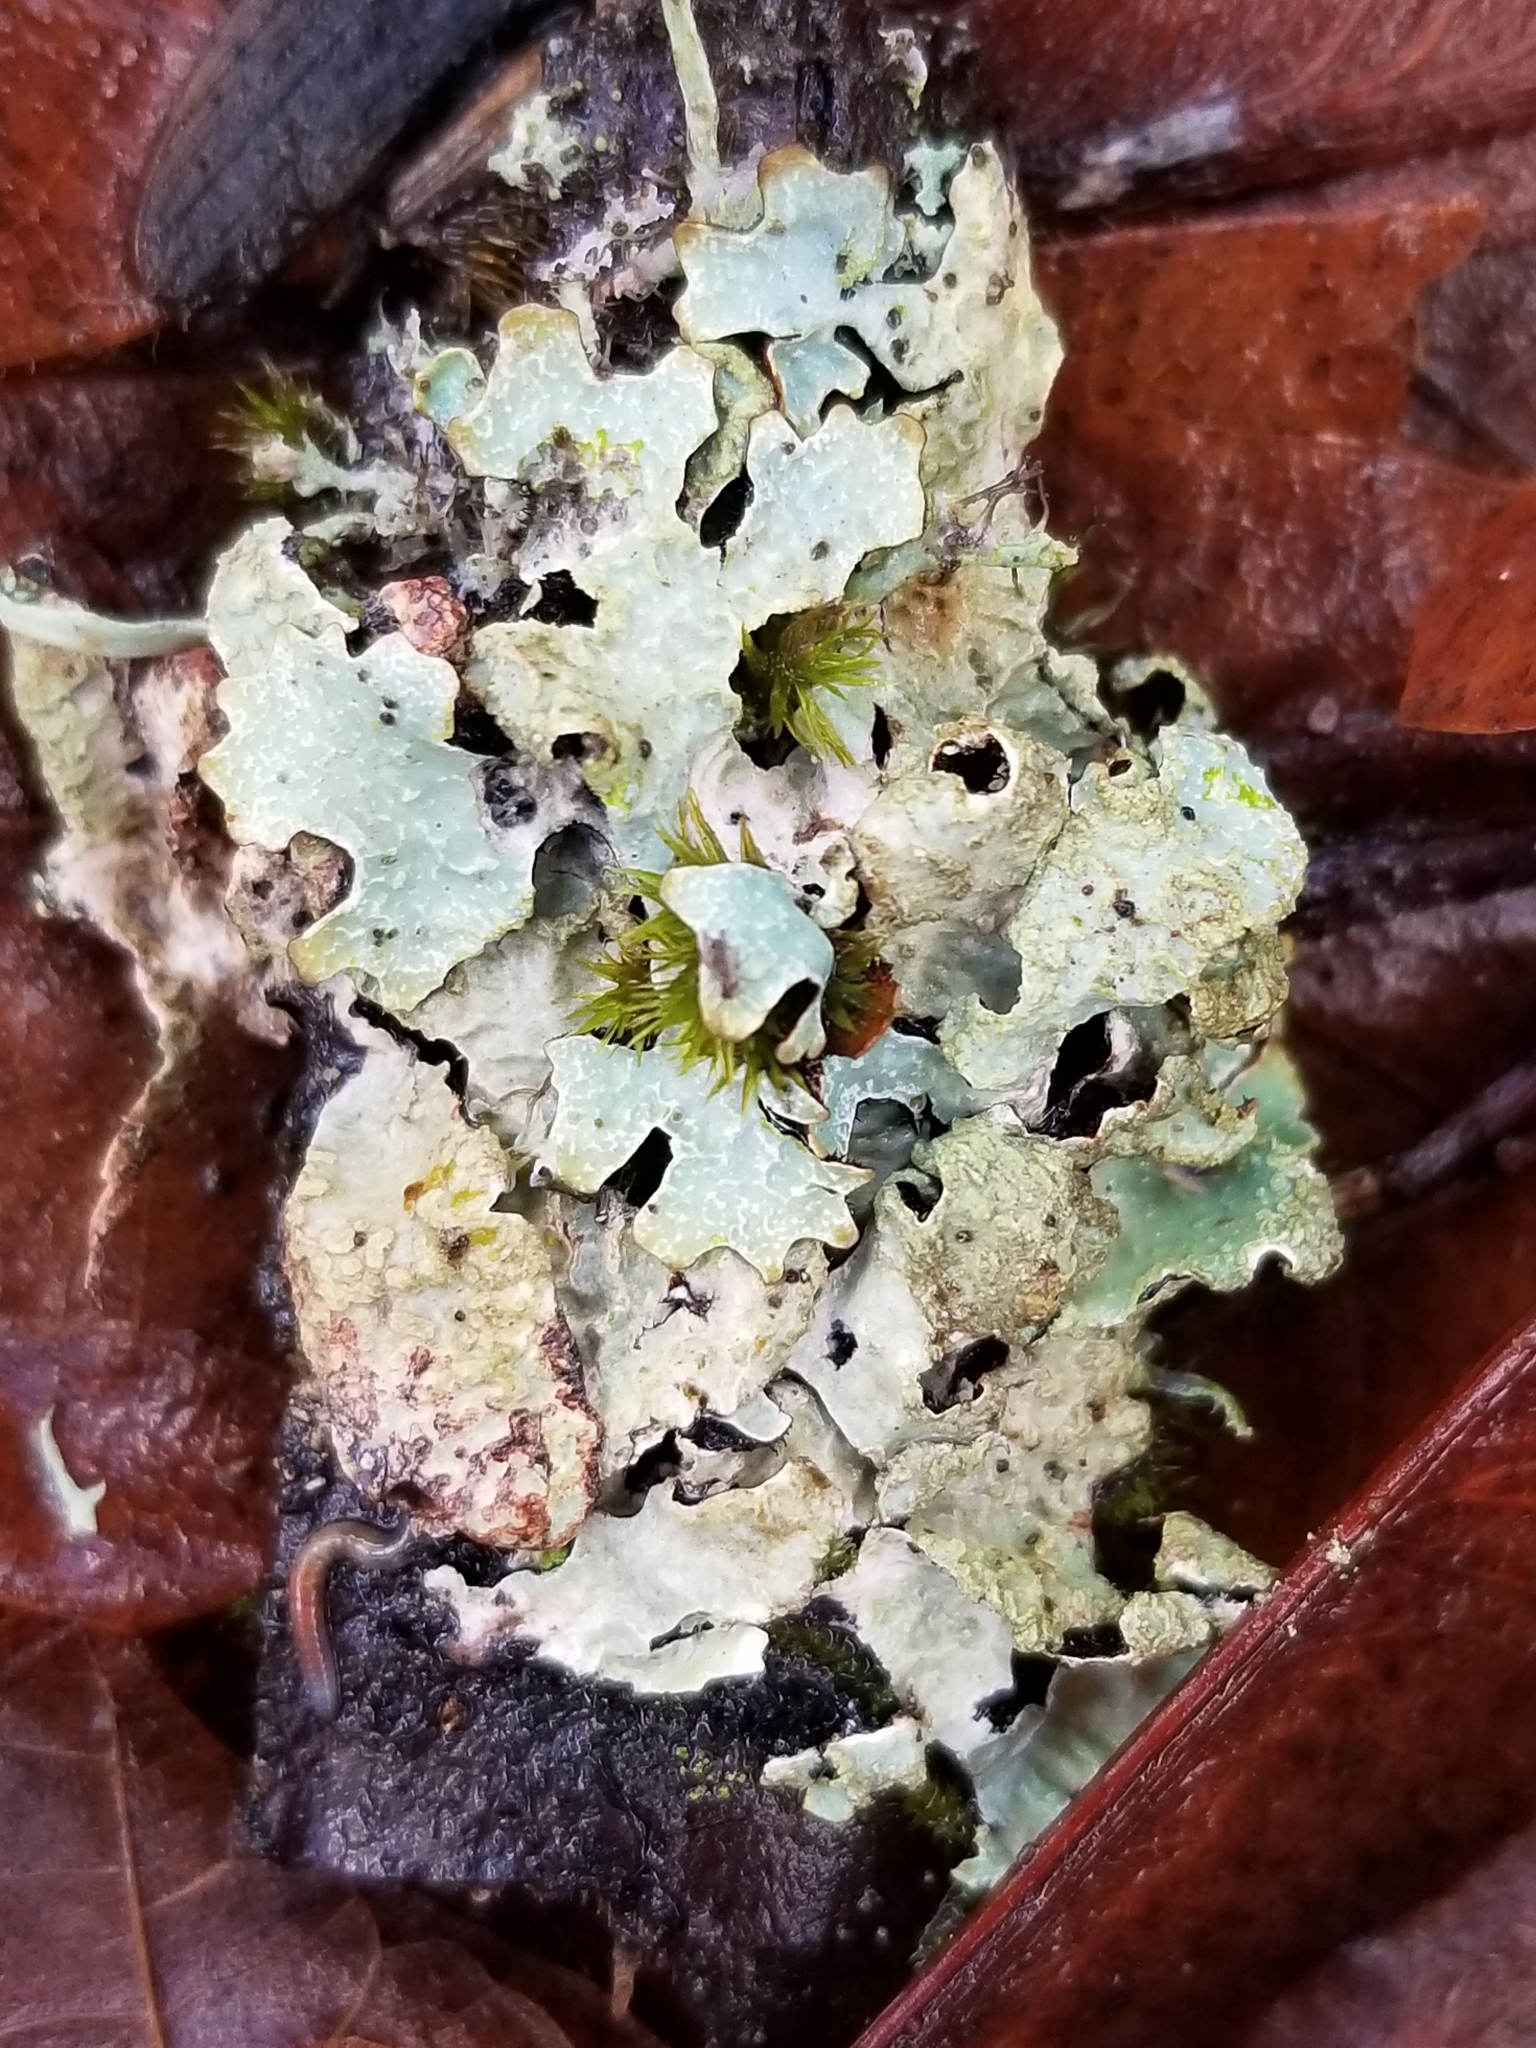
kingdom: Fungi
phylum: Ascomycota
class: Lecanoromycetes
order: Lecanorales
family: Parmeliaceae
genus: Parmelia
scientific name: Parmelia sulcata
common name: Netted shield lichen
